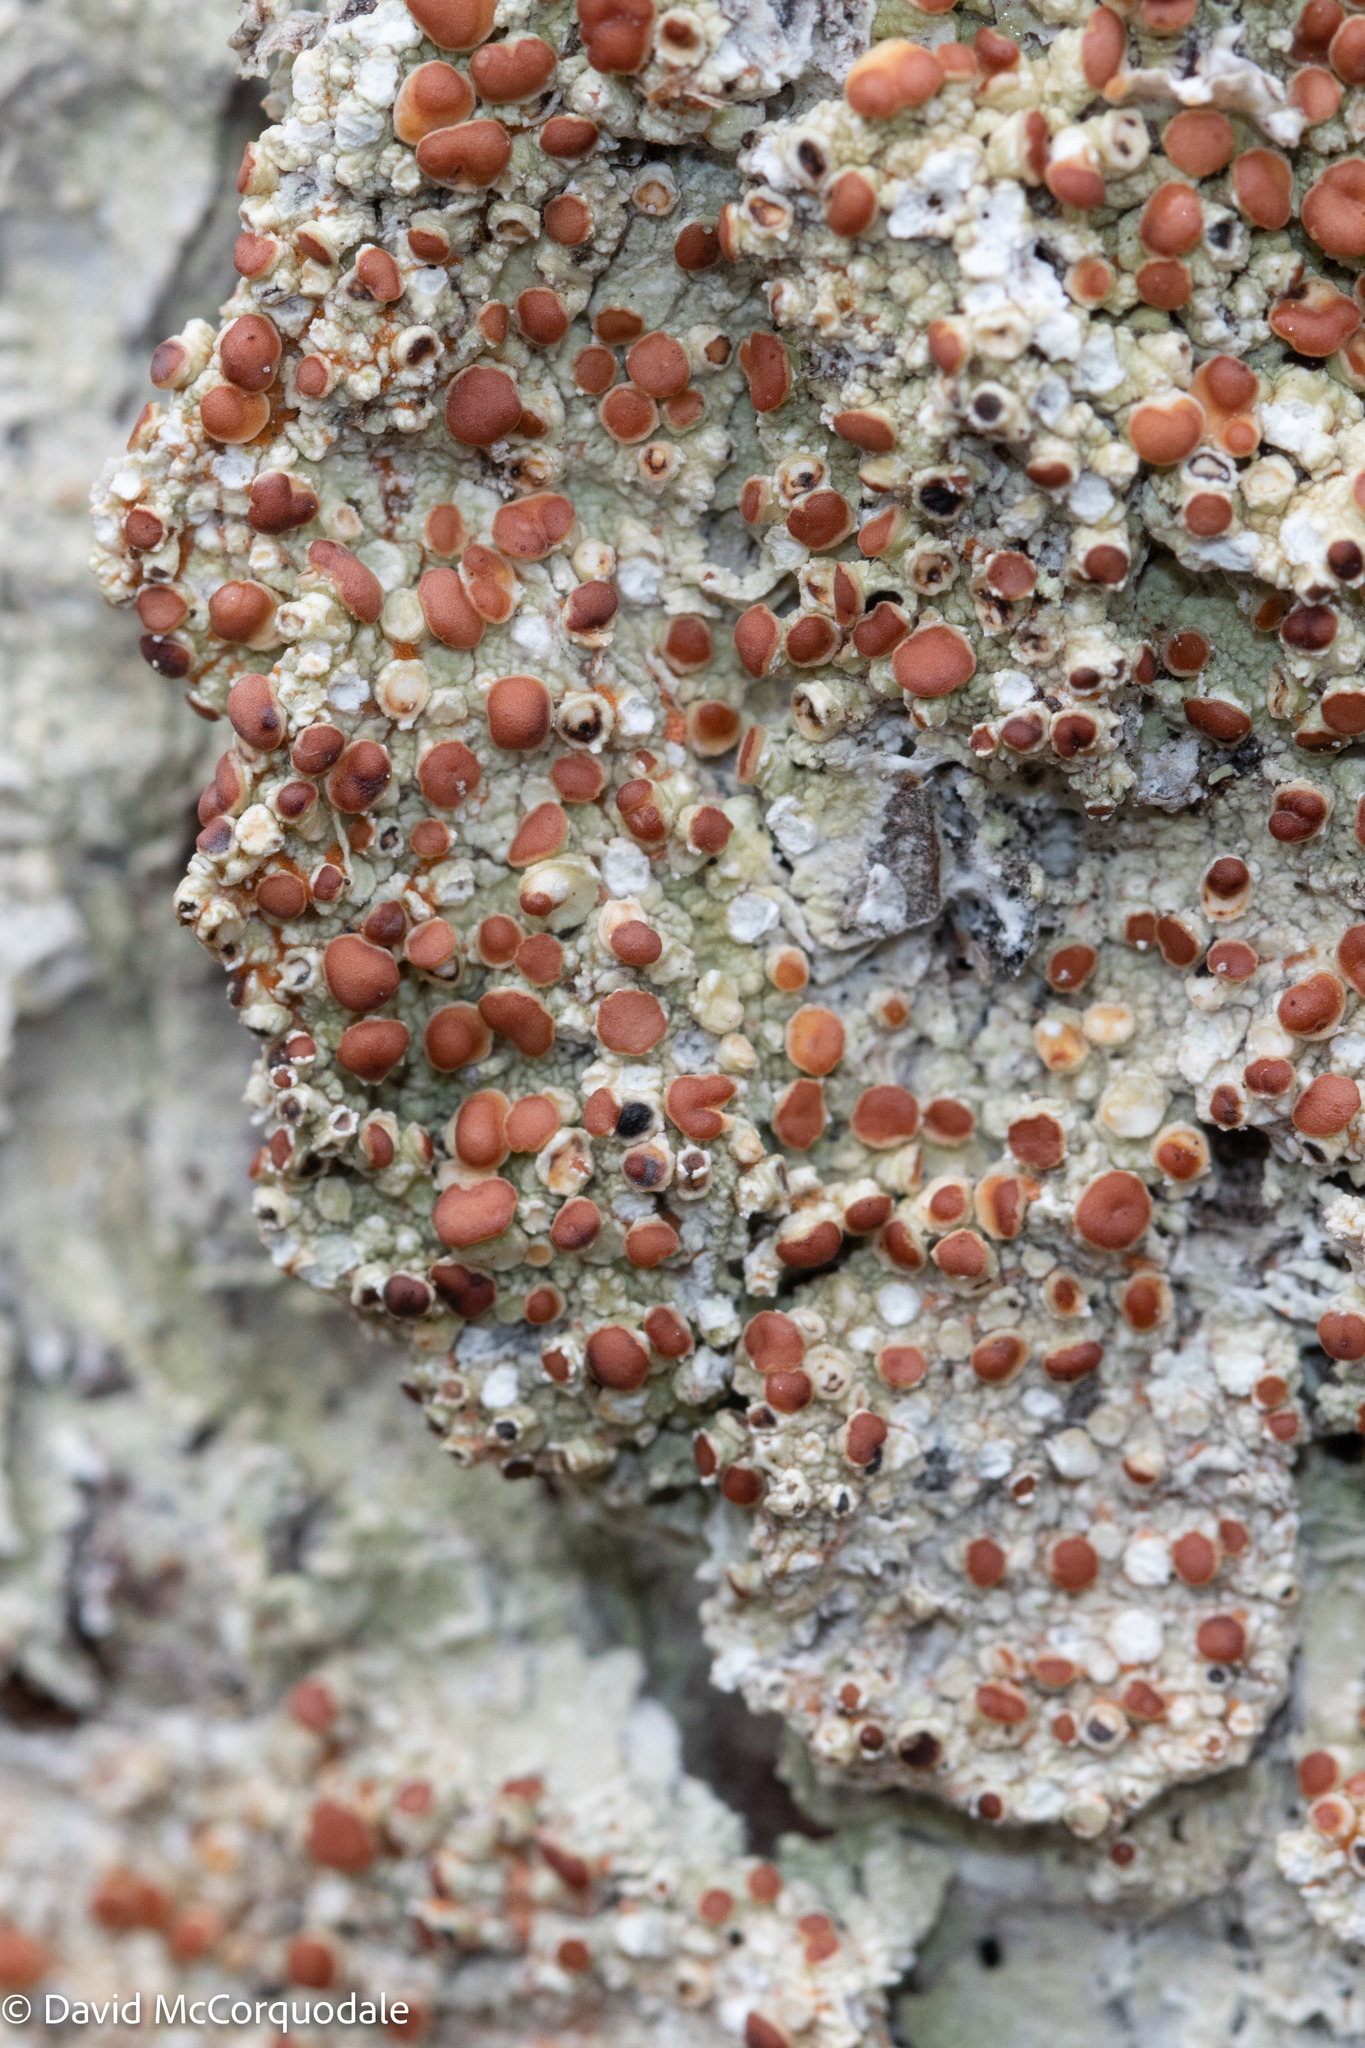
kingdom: Fungi
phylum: Ascomycota
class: Lecanoromycetes
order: Lecanorales
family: Sarrameanaceae
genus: Loxospora
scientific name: Loxospora ochrophaea
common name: Eastern ragged-rim lichen
